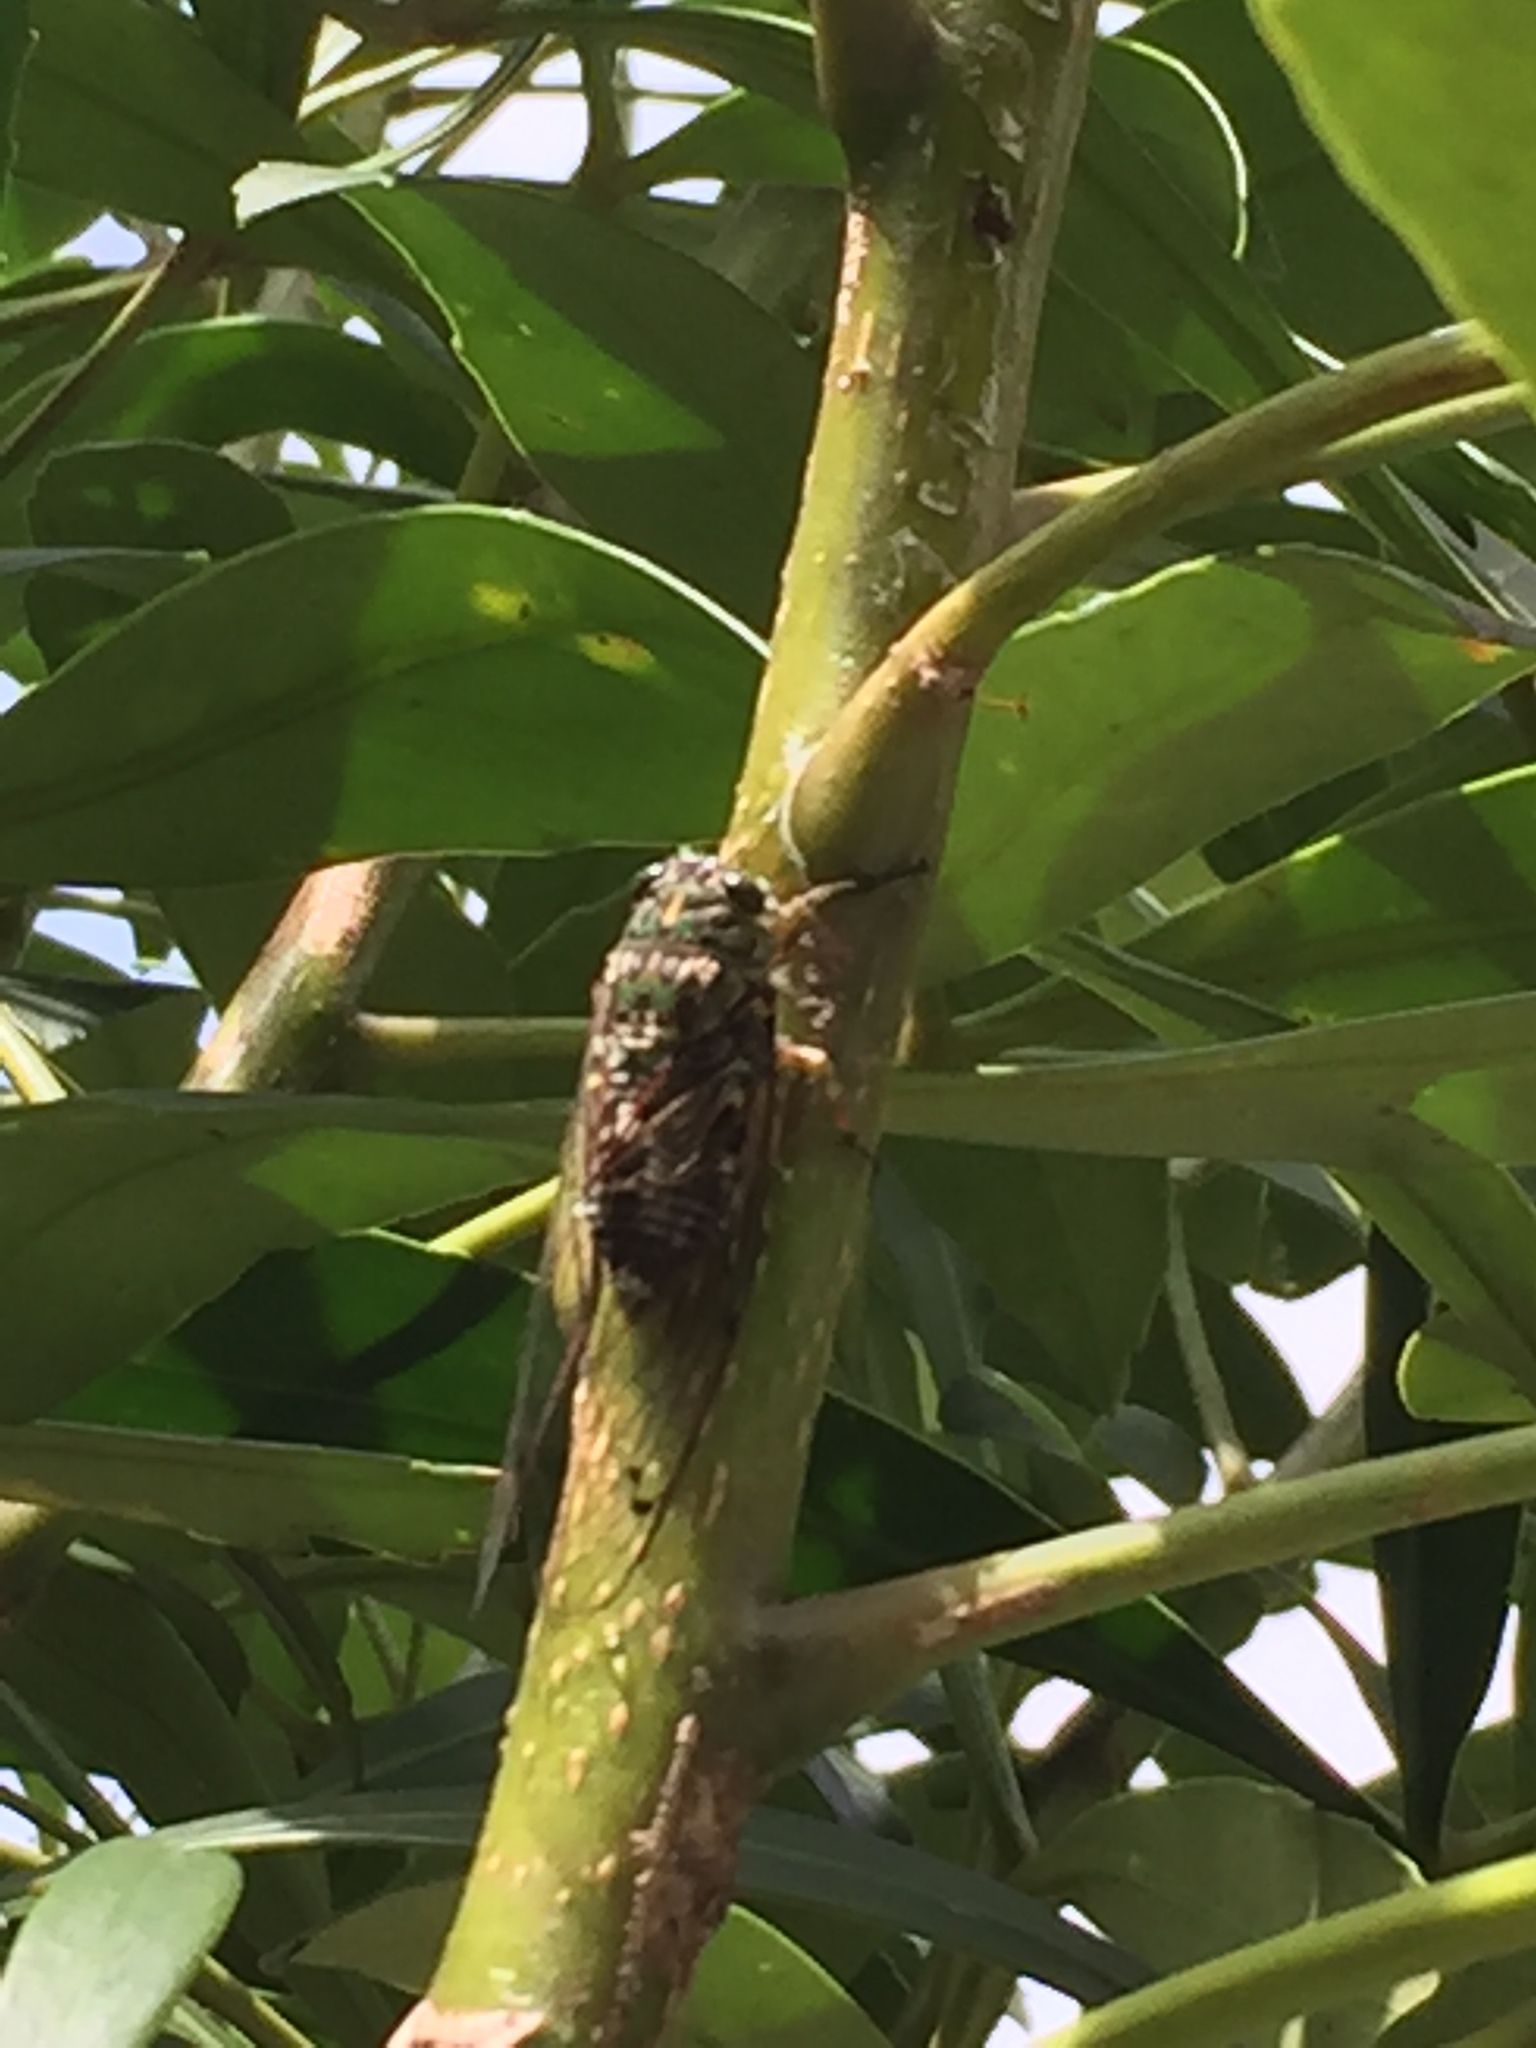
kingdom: Animalia
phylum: Arthropoda
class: Insecta
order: Hemiptera
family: Cicadidae
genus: Amphipsalta
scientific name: Amphipsalta zelandica
